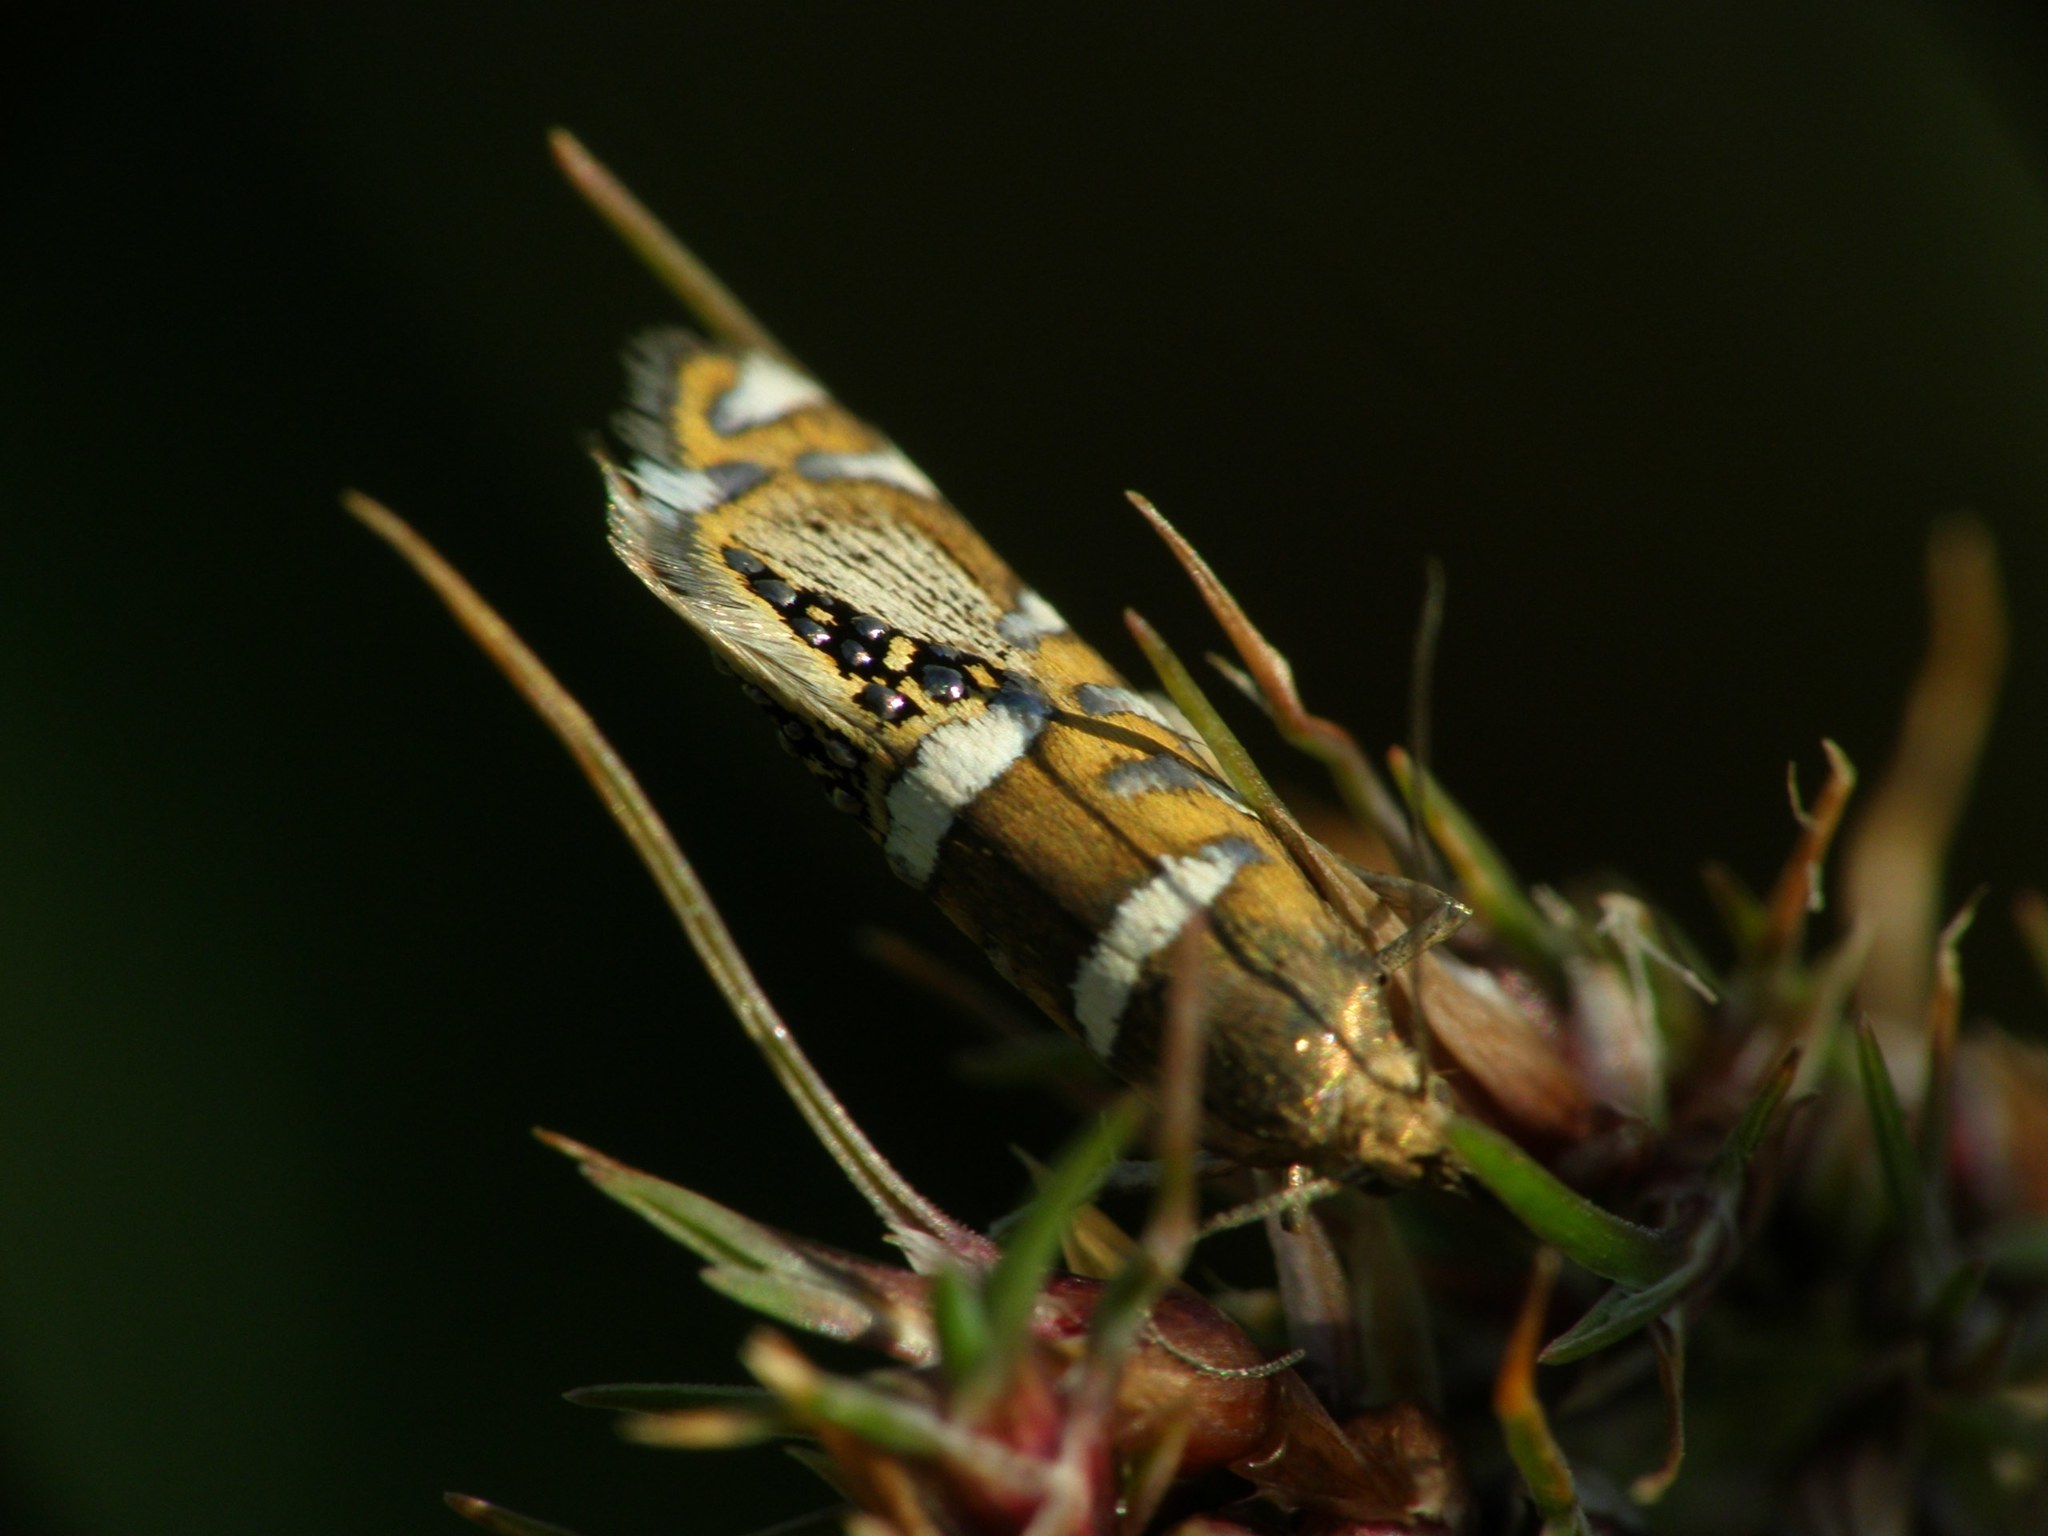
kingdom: Animalia
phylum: Arthropoda
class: Insecta
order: Lepidoptera
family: Glyphipterigidae
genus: Glyphipterix
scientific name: Glyphipterix loricatella
